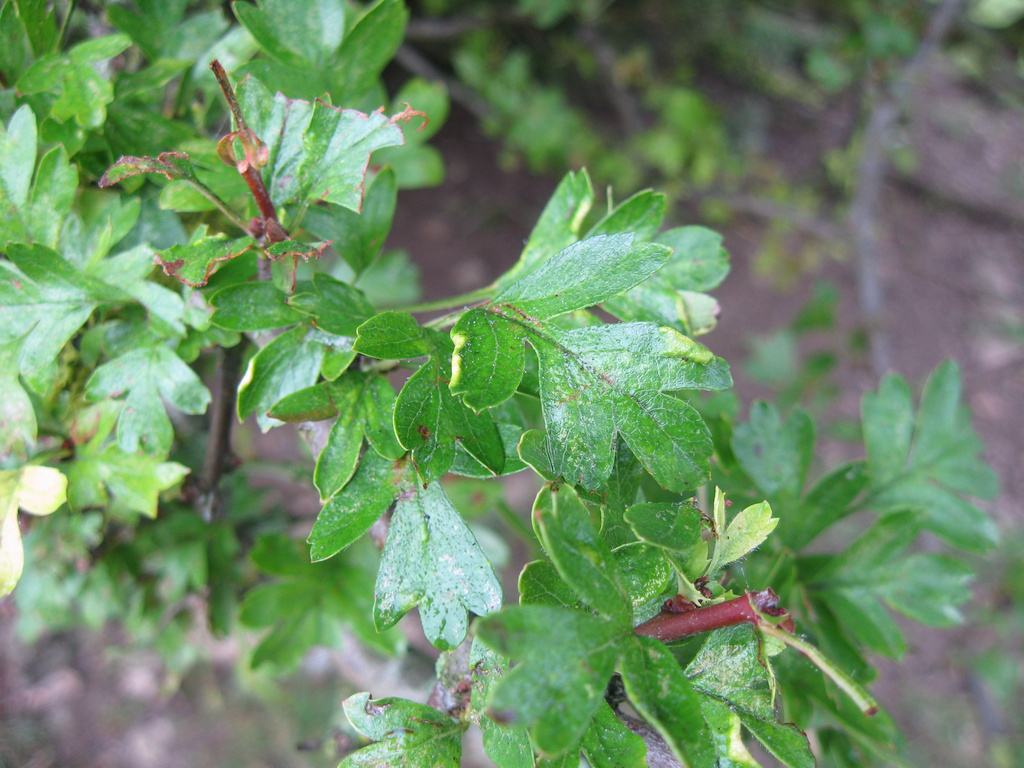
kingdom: Animalia
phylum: Arthropoda
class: Arachnida
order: Trombidiformes
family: Eriophyidae
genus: Phyllocoptes
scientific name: Phyllocoptes goniothorax
